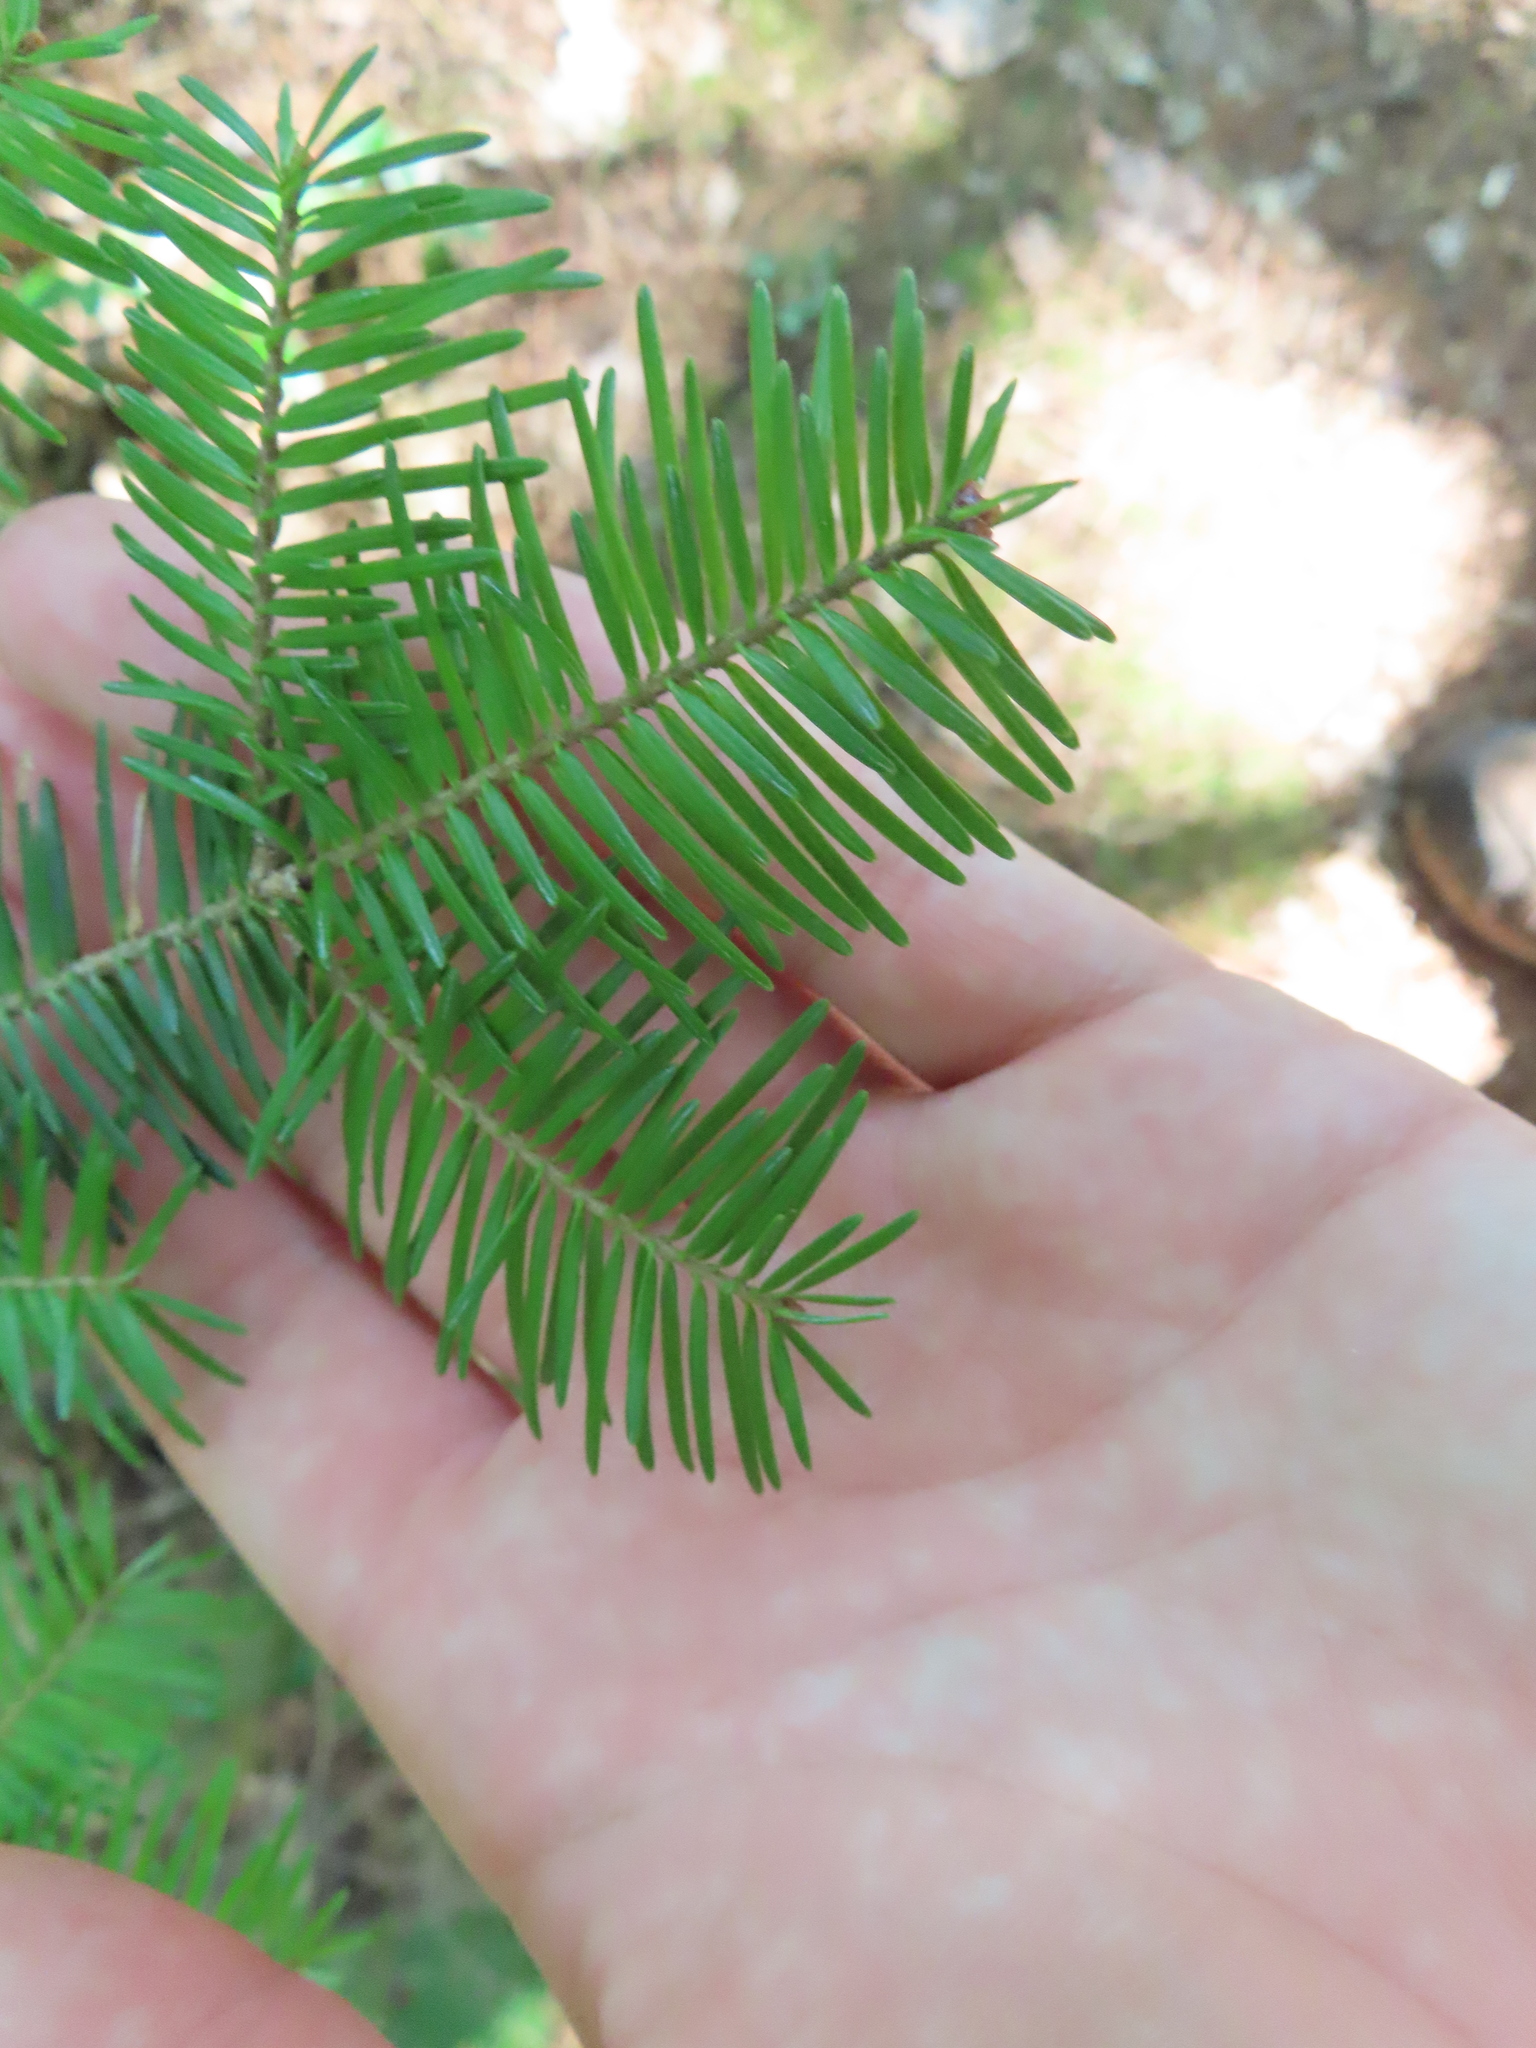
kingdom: Plantae
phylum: Tracheophyta
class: Pinopsida
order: Pinales
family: Pinaceae
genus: Abies
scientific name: Abies balsamea
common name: Balsam fir
